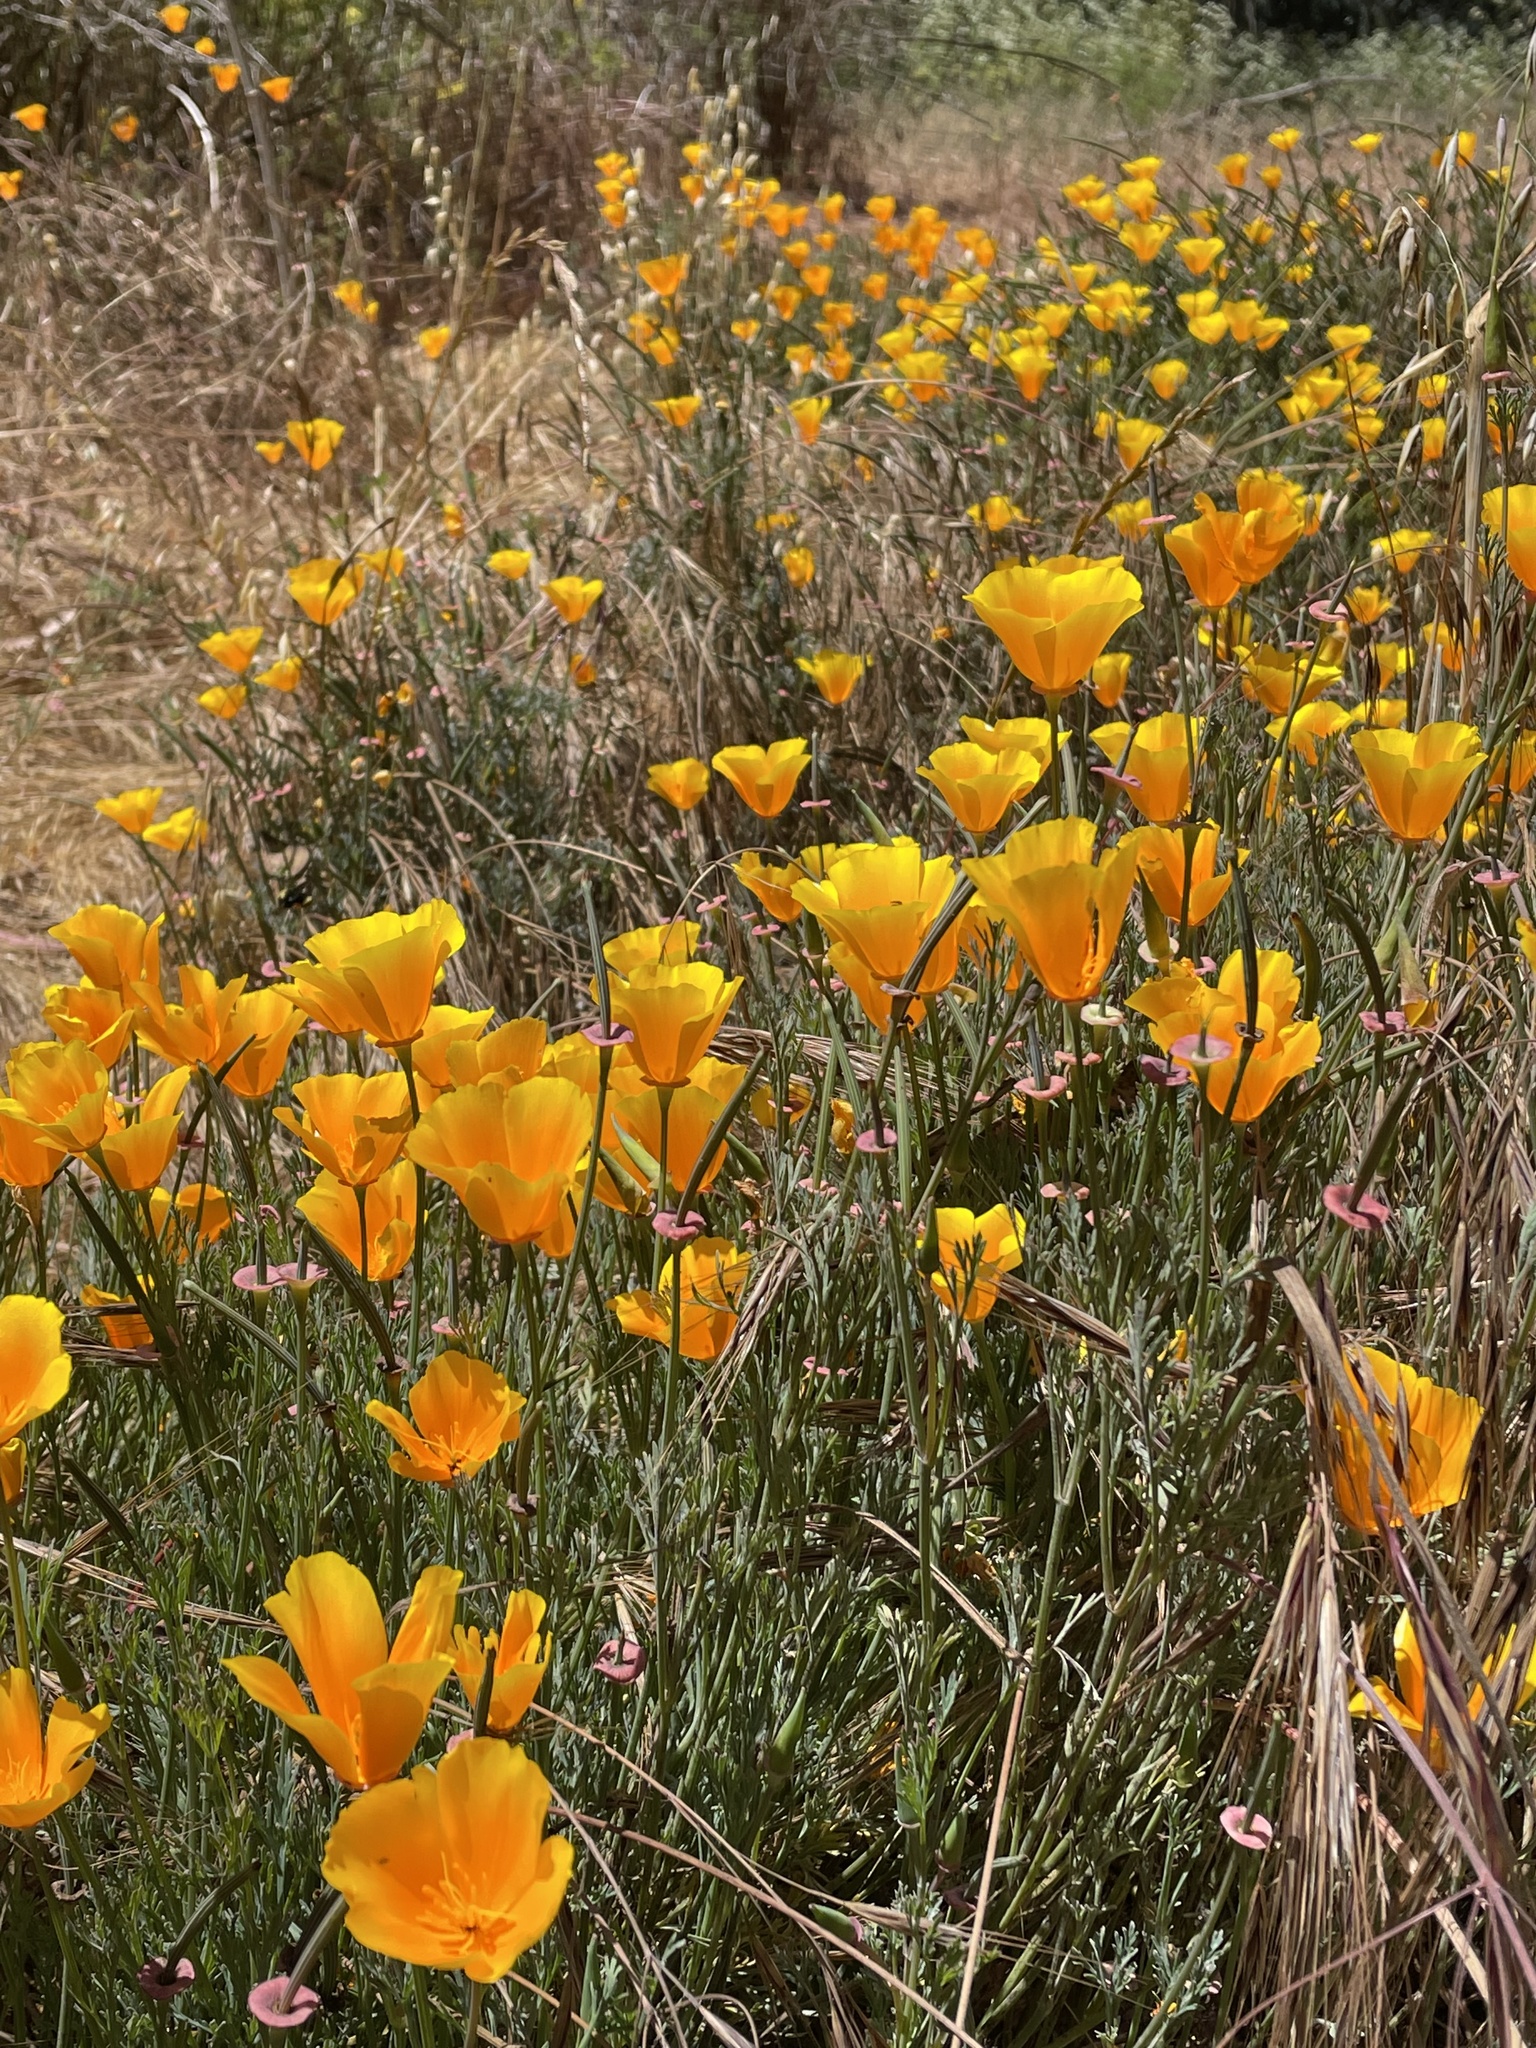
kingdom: Plantae
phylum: Tracheophyta
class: Magnoliopsida
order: Ranunculales
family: Papaveraceae
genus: Eschscholzia
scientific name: Eschscholzia californica
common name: California poppy
